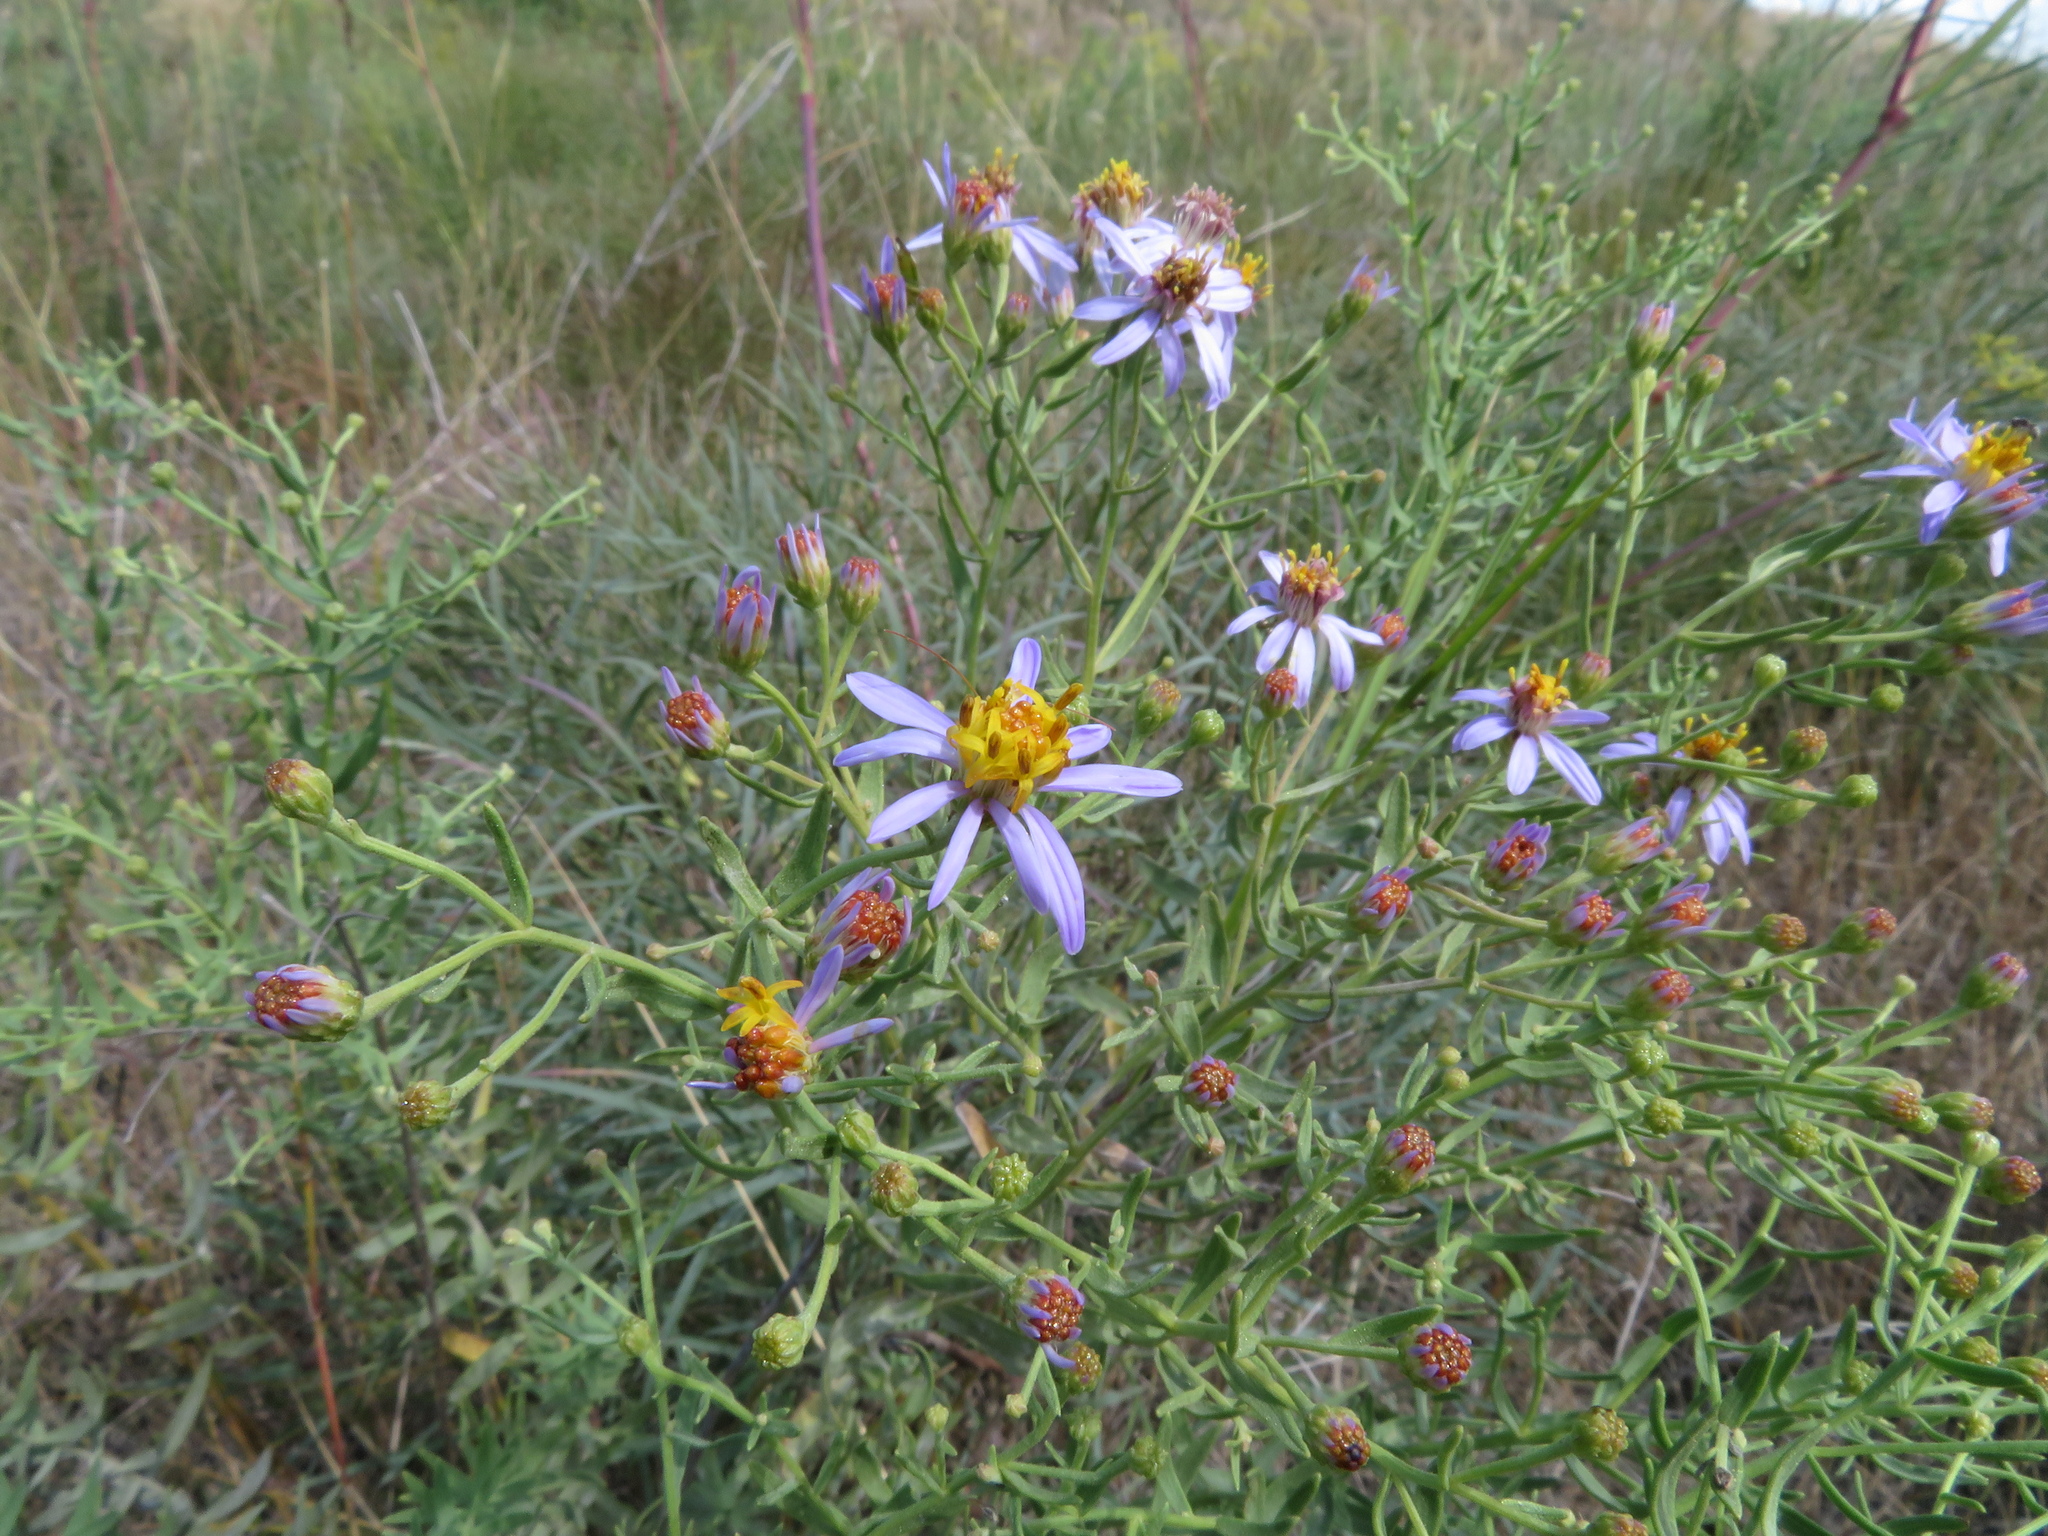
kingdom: Plantae
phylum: Tracheophyta
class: Magnoliopsida
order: Asterales
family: Asteraceae
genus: Galatella
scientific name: Galatella sedifolia
